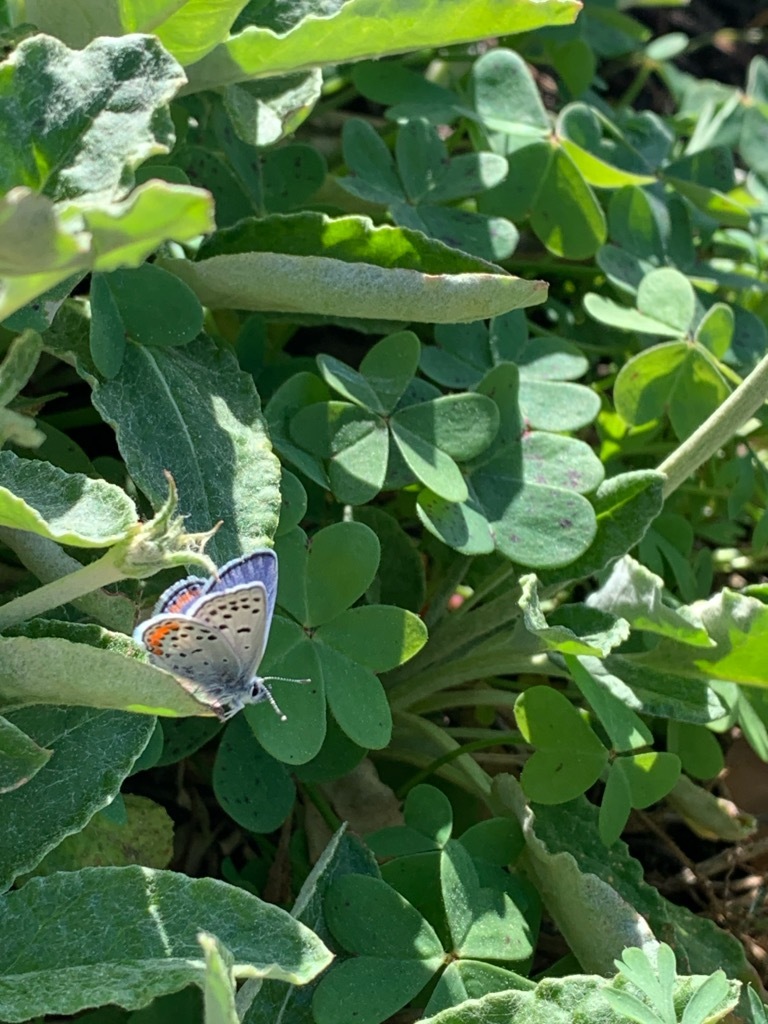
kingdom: Animalia
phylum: Arthropoda
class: Insecta
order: Lepidoptera
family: Lycaenidae
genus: Icaricia
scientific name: Icaricia acmon
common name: Acmon blue
